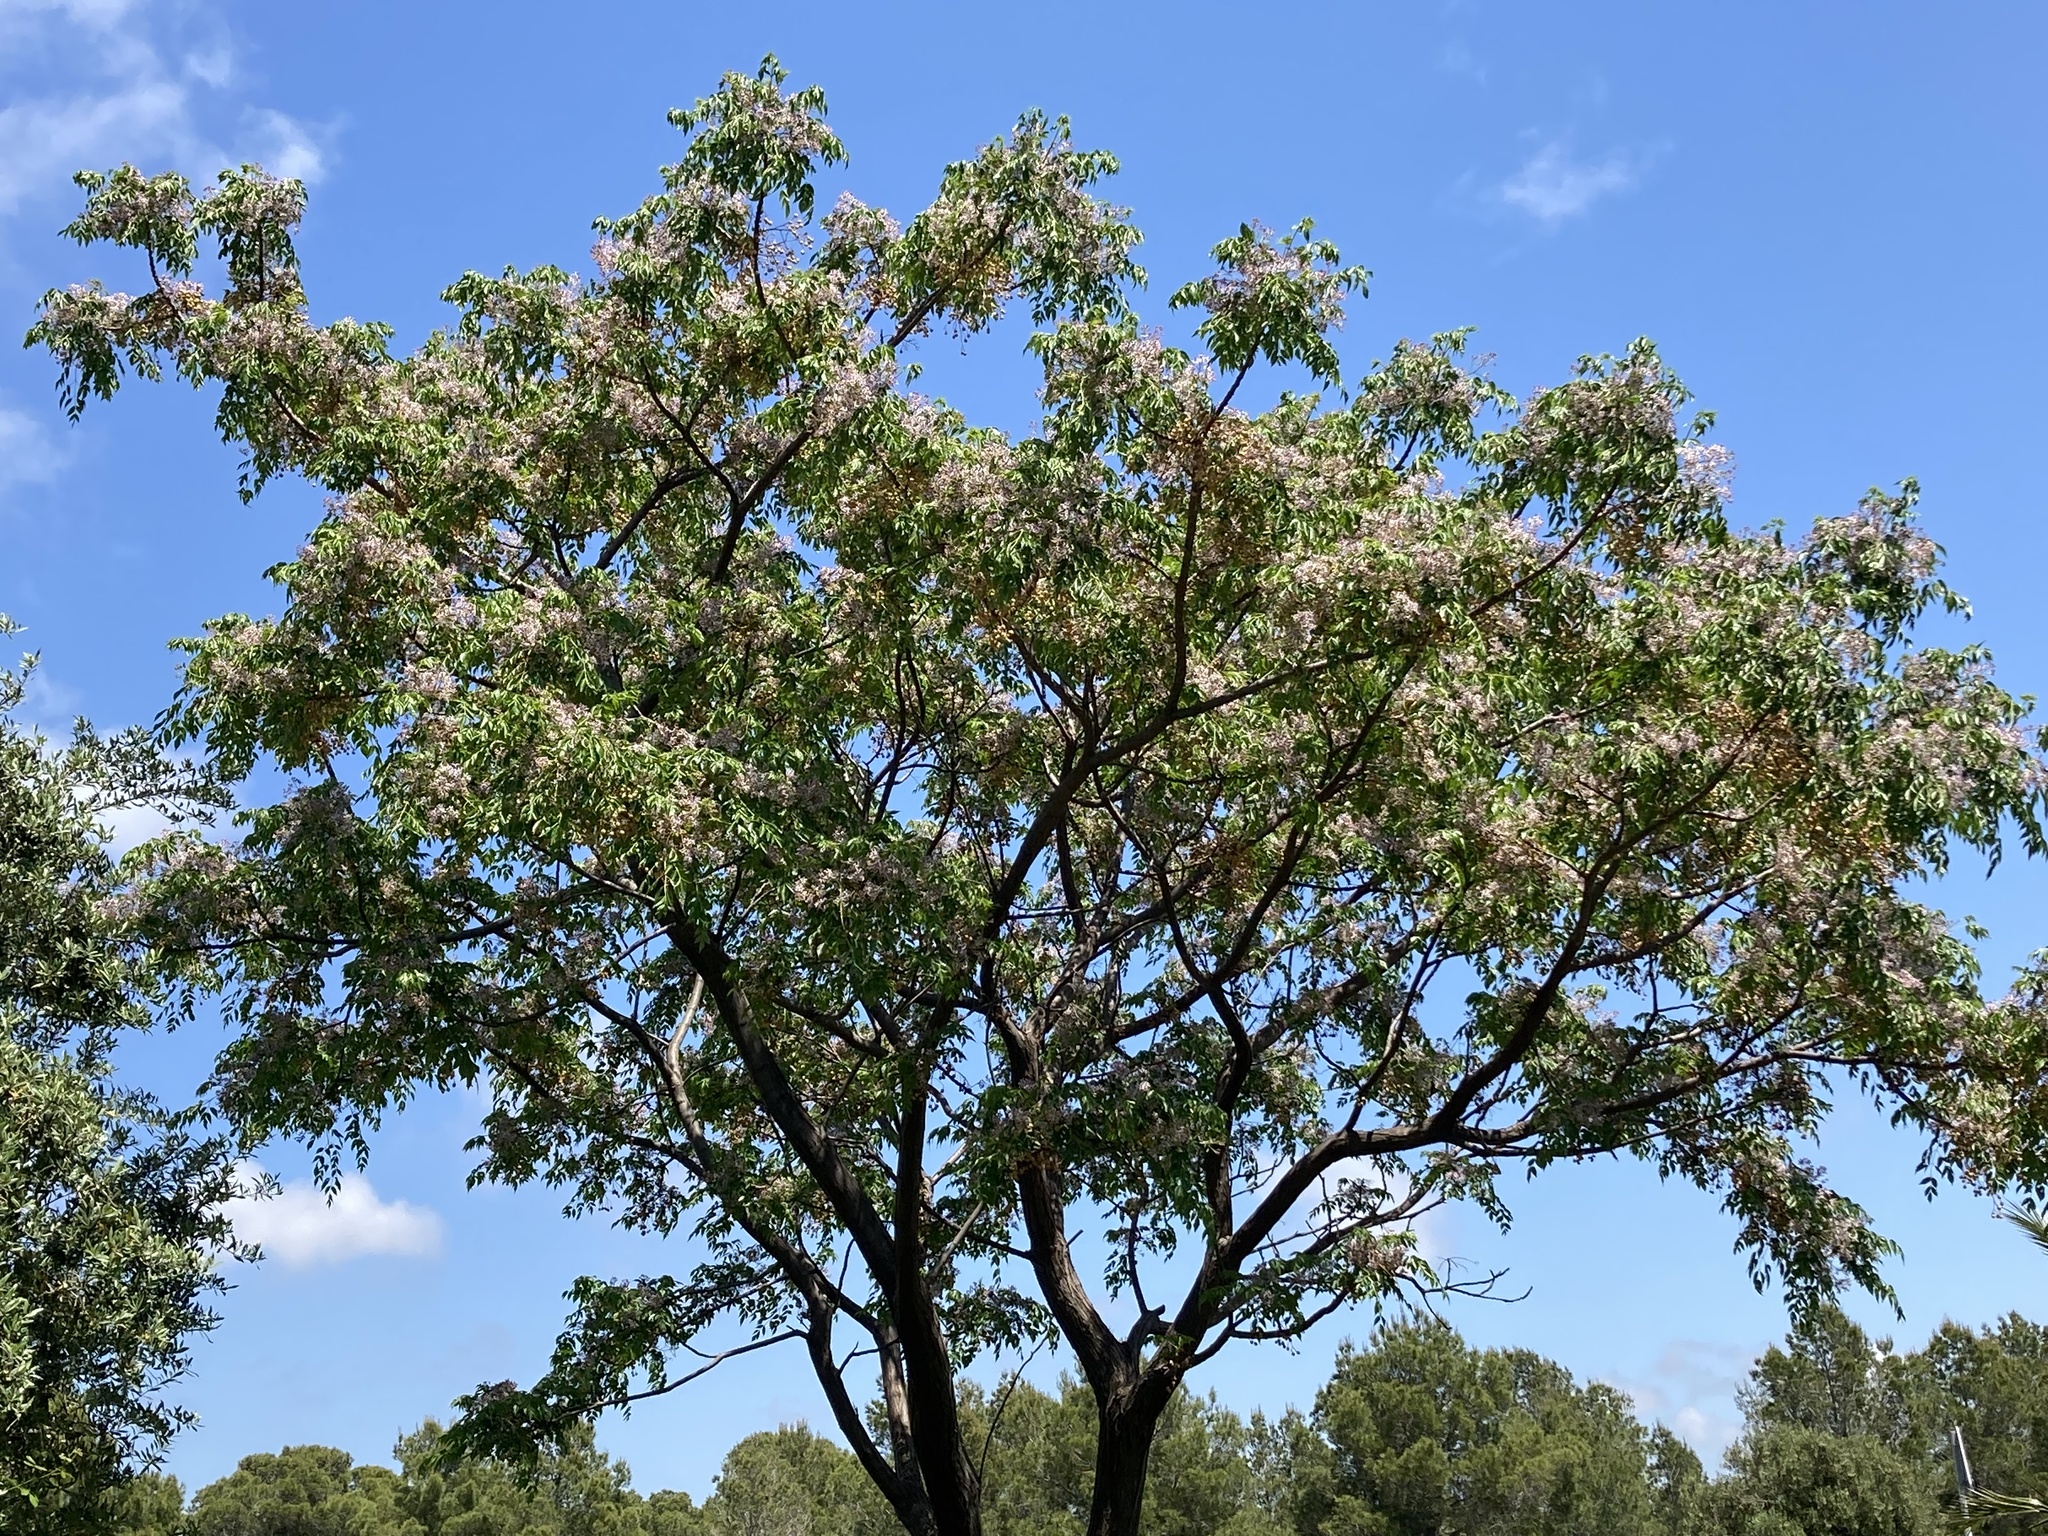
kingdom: Plantae
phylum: Tracheophyta
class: Magnoliopsida
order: Sapindales
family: Meliaceae
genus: Melia
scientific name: Melia azedarach
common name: Chinaberrytree
